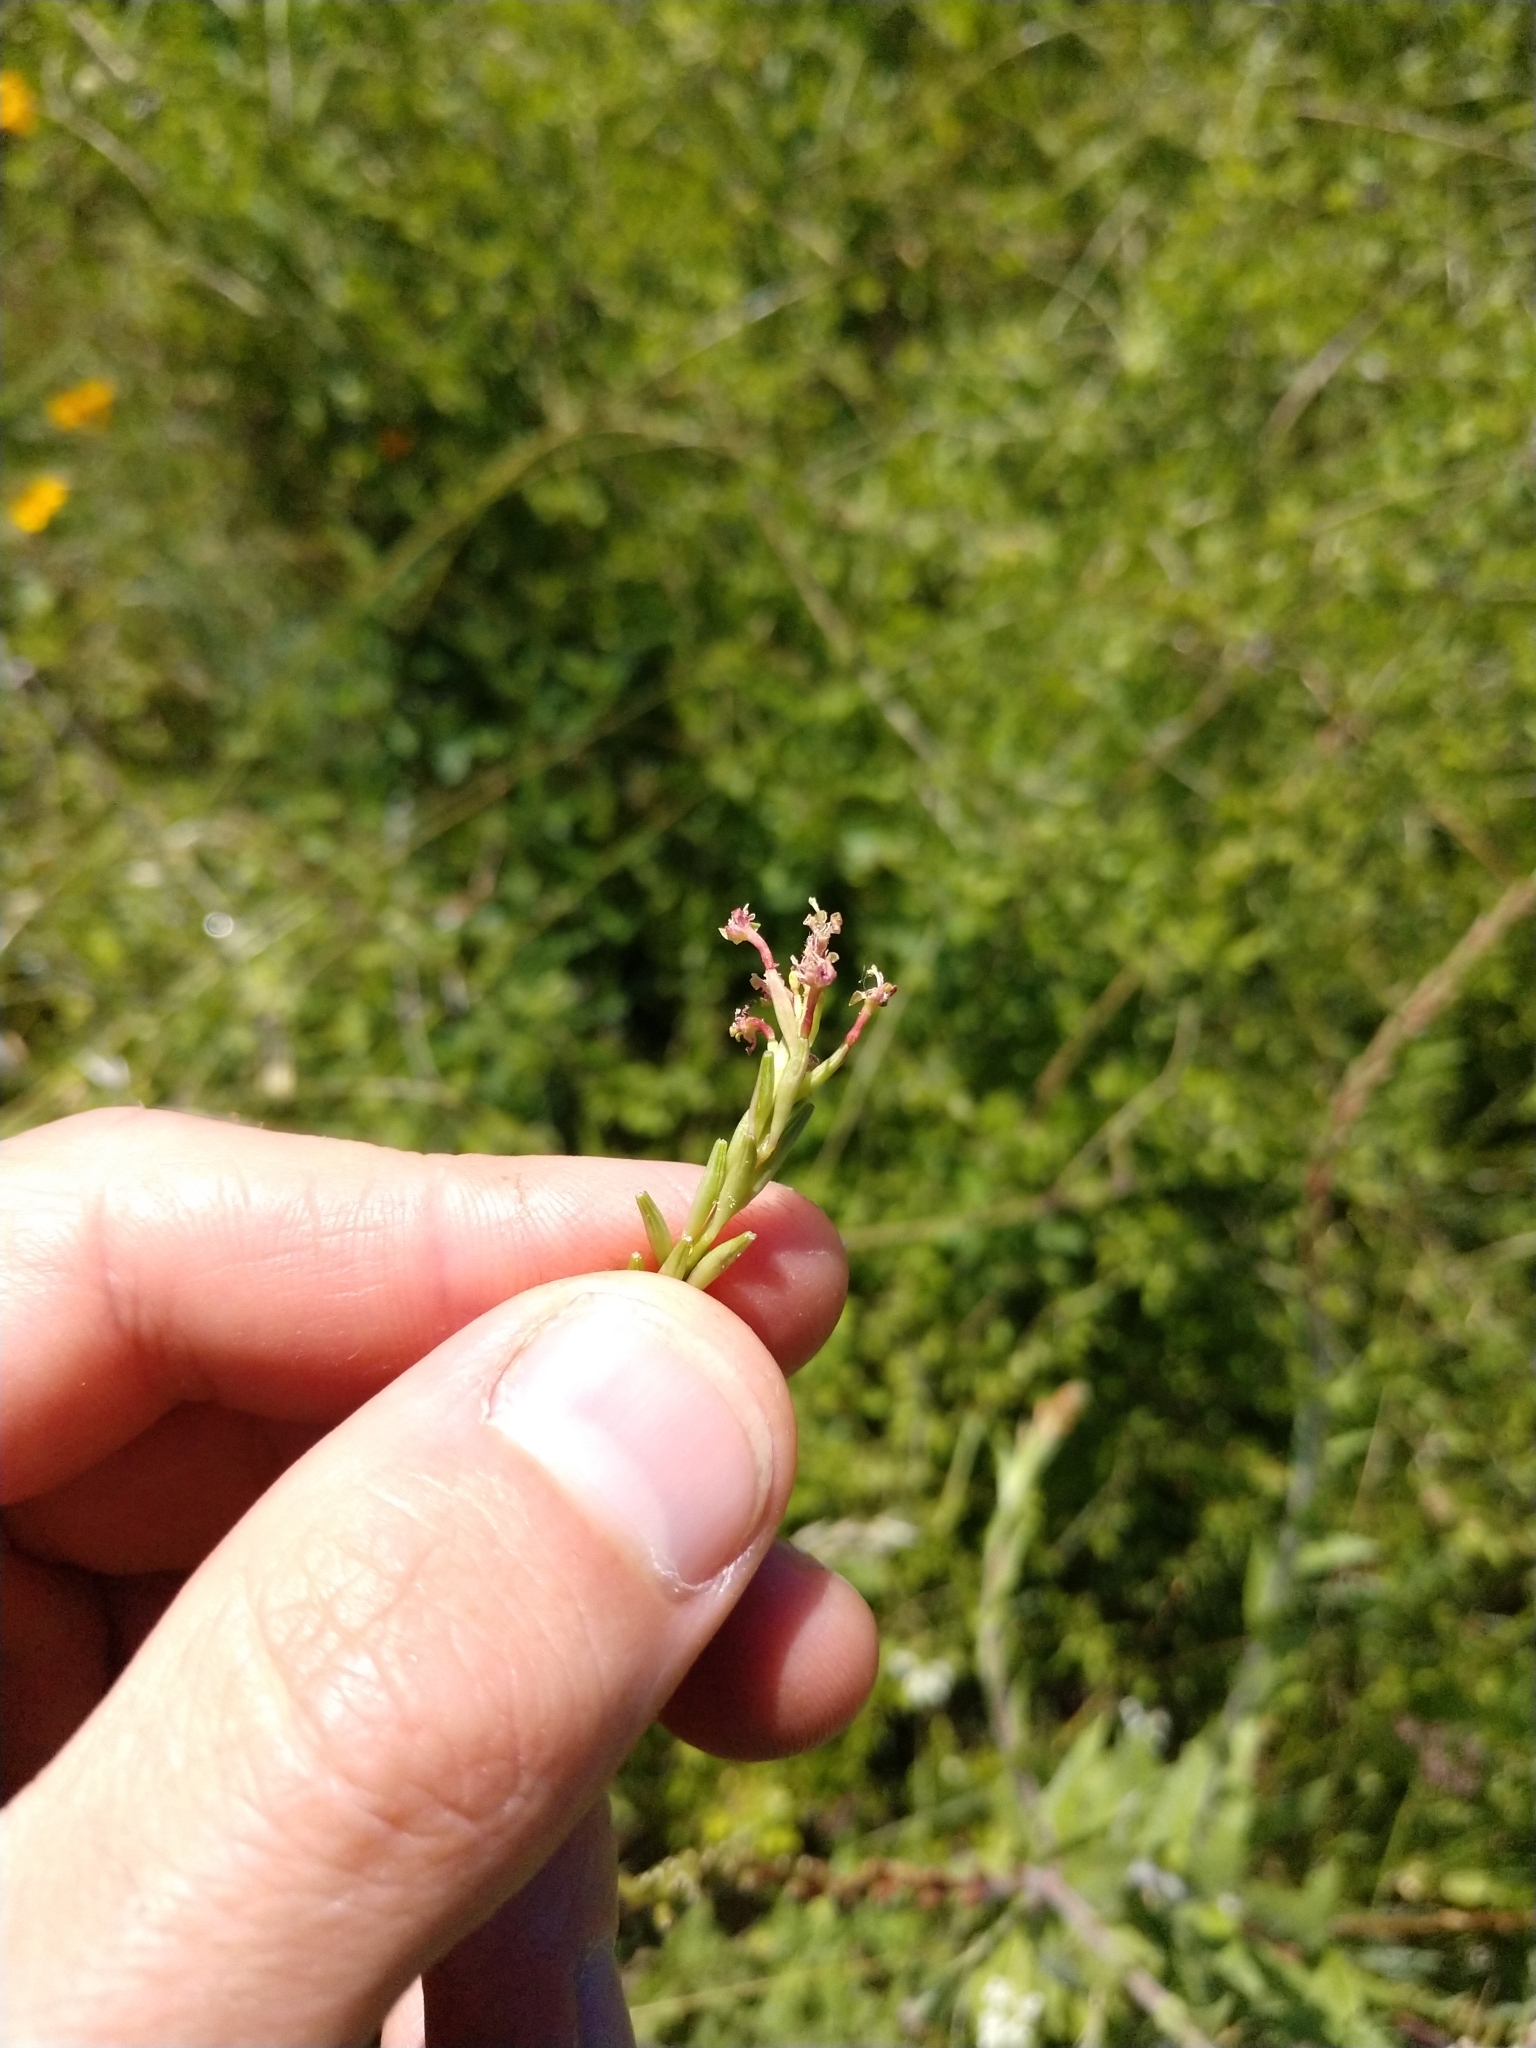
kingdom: Plantae
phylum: Tracheophyta
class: Magnoliopsida
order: Myrtales
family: Onagraceae
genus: Oenothera
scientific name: Oenothera curtiflora
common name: Velvetweed
